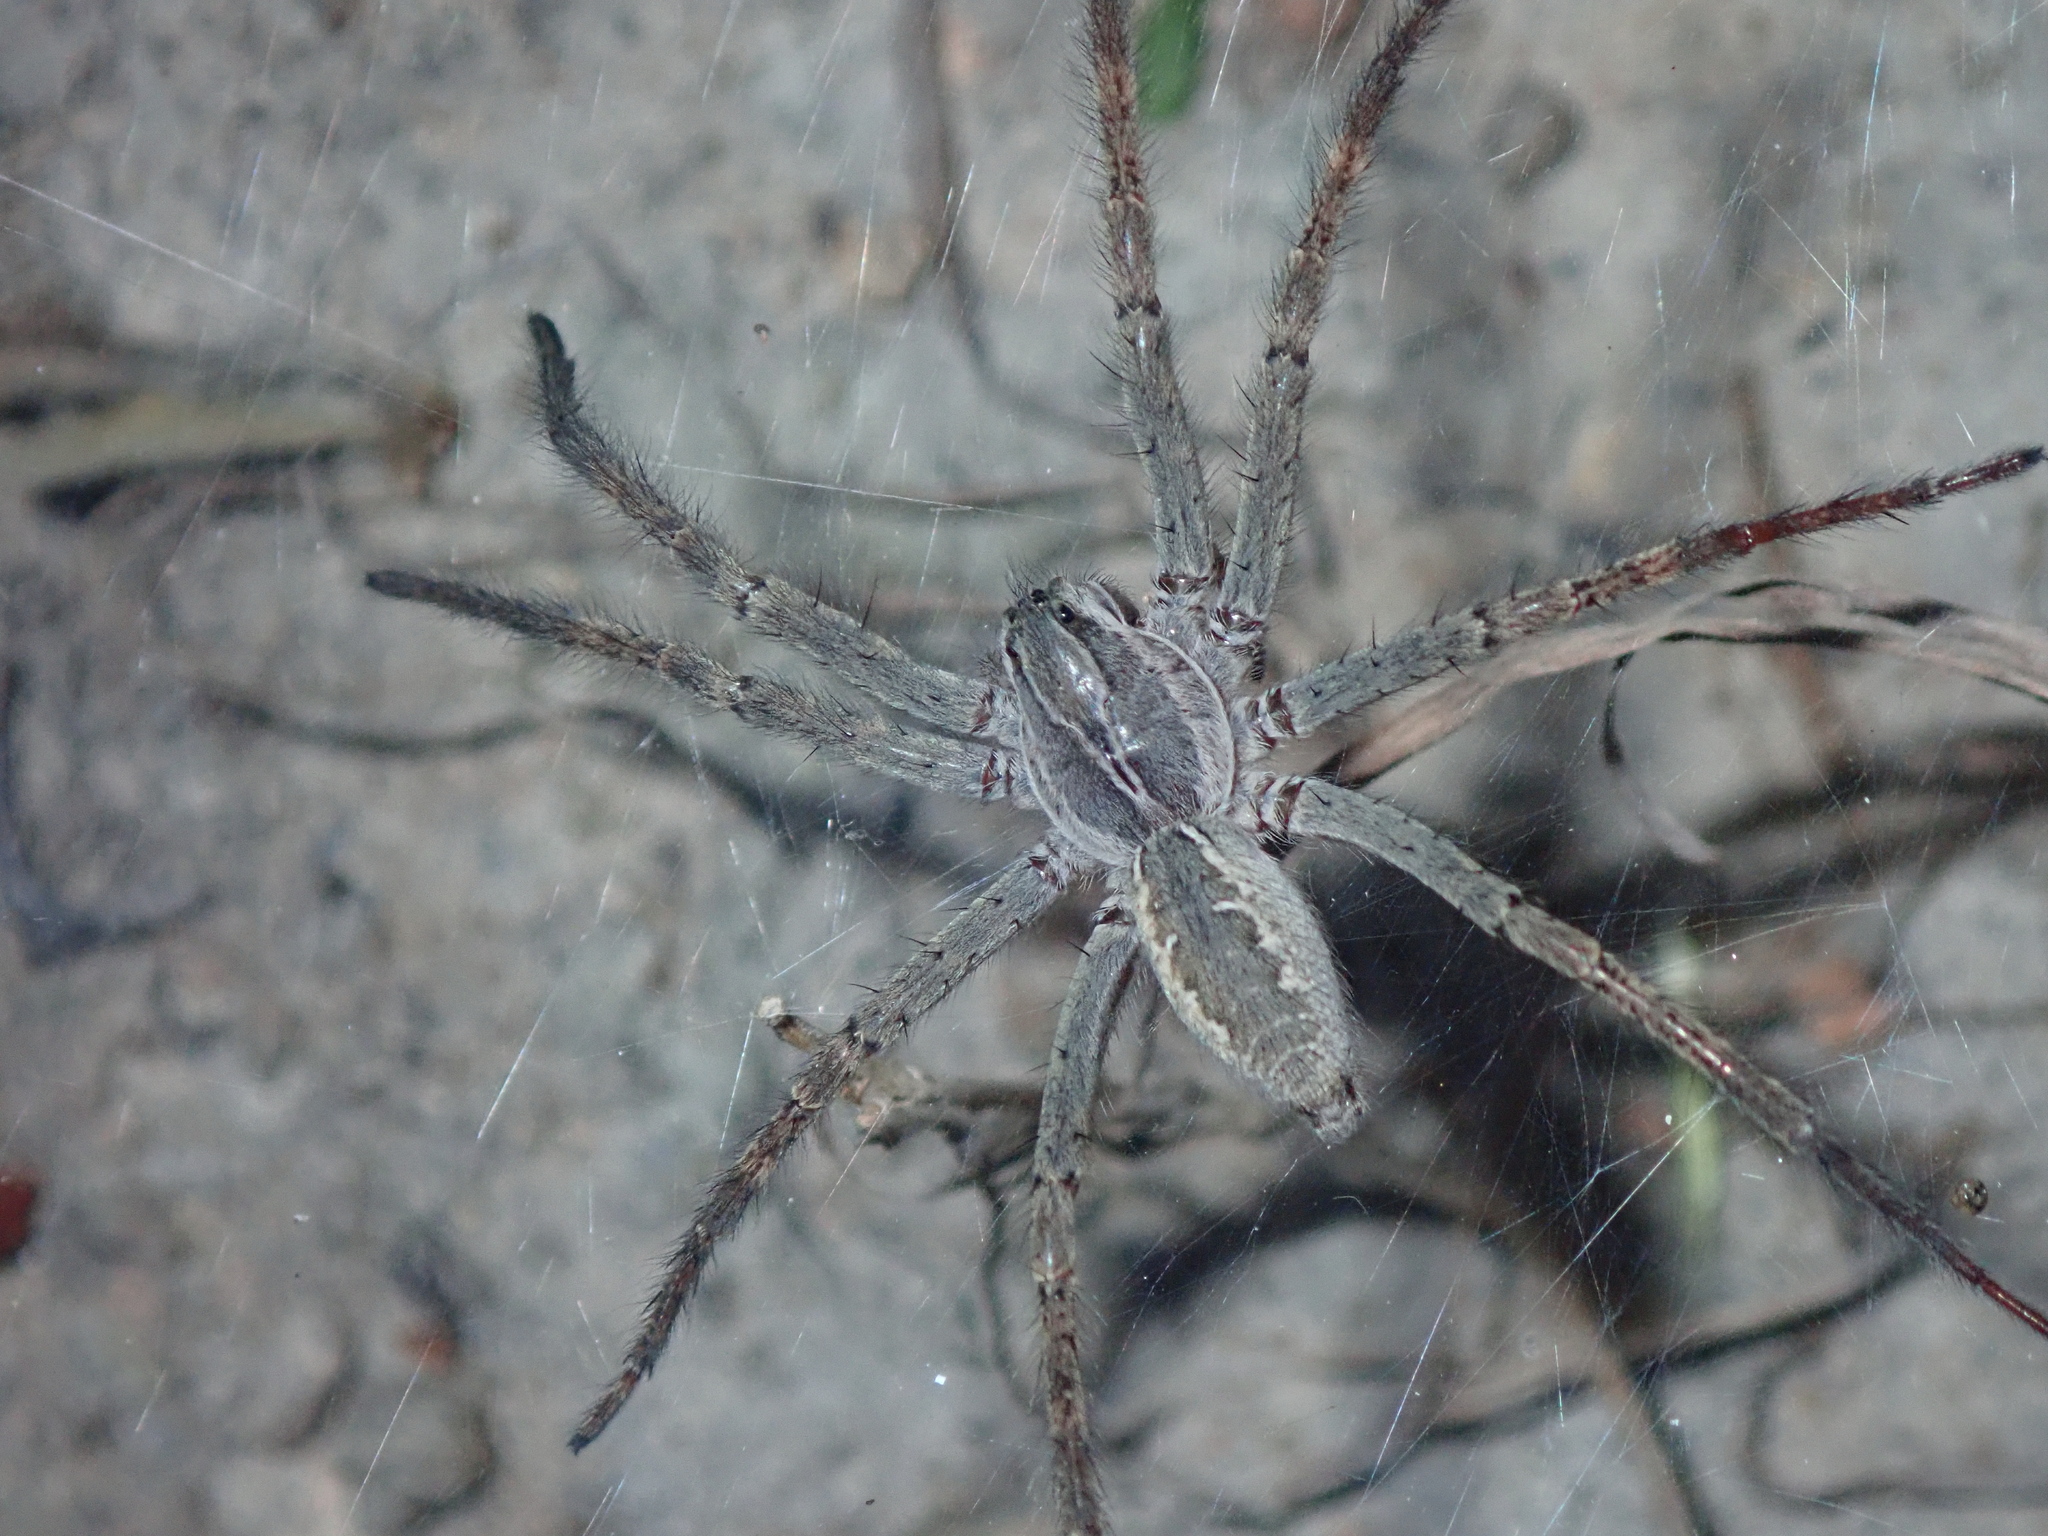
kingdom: Animalia
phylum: Arthropoda
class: Arachnida
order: Araneae
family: Lycosidae
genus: Aglaoctenus
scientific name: Aglaoctenus lagotis
